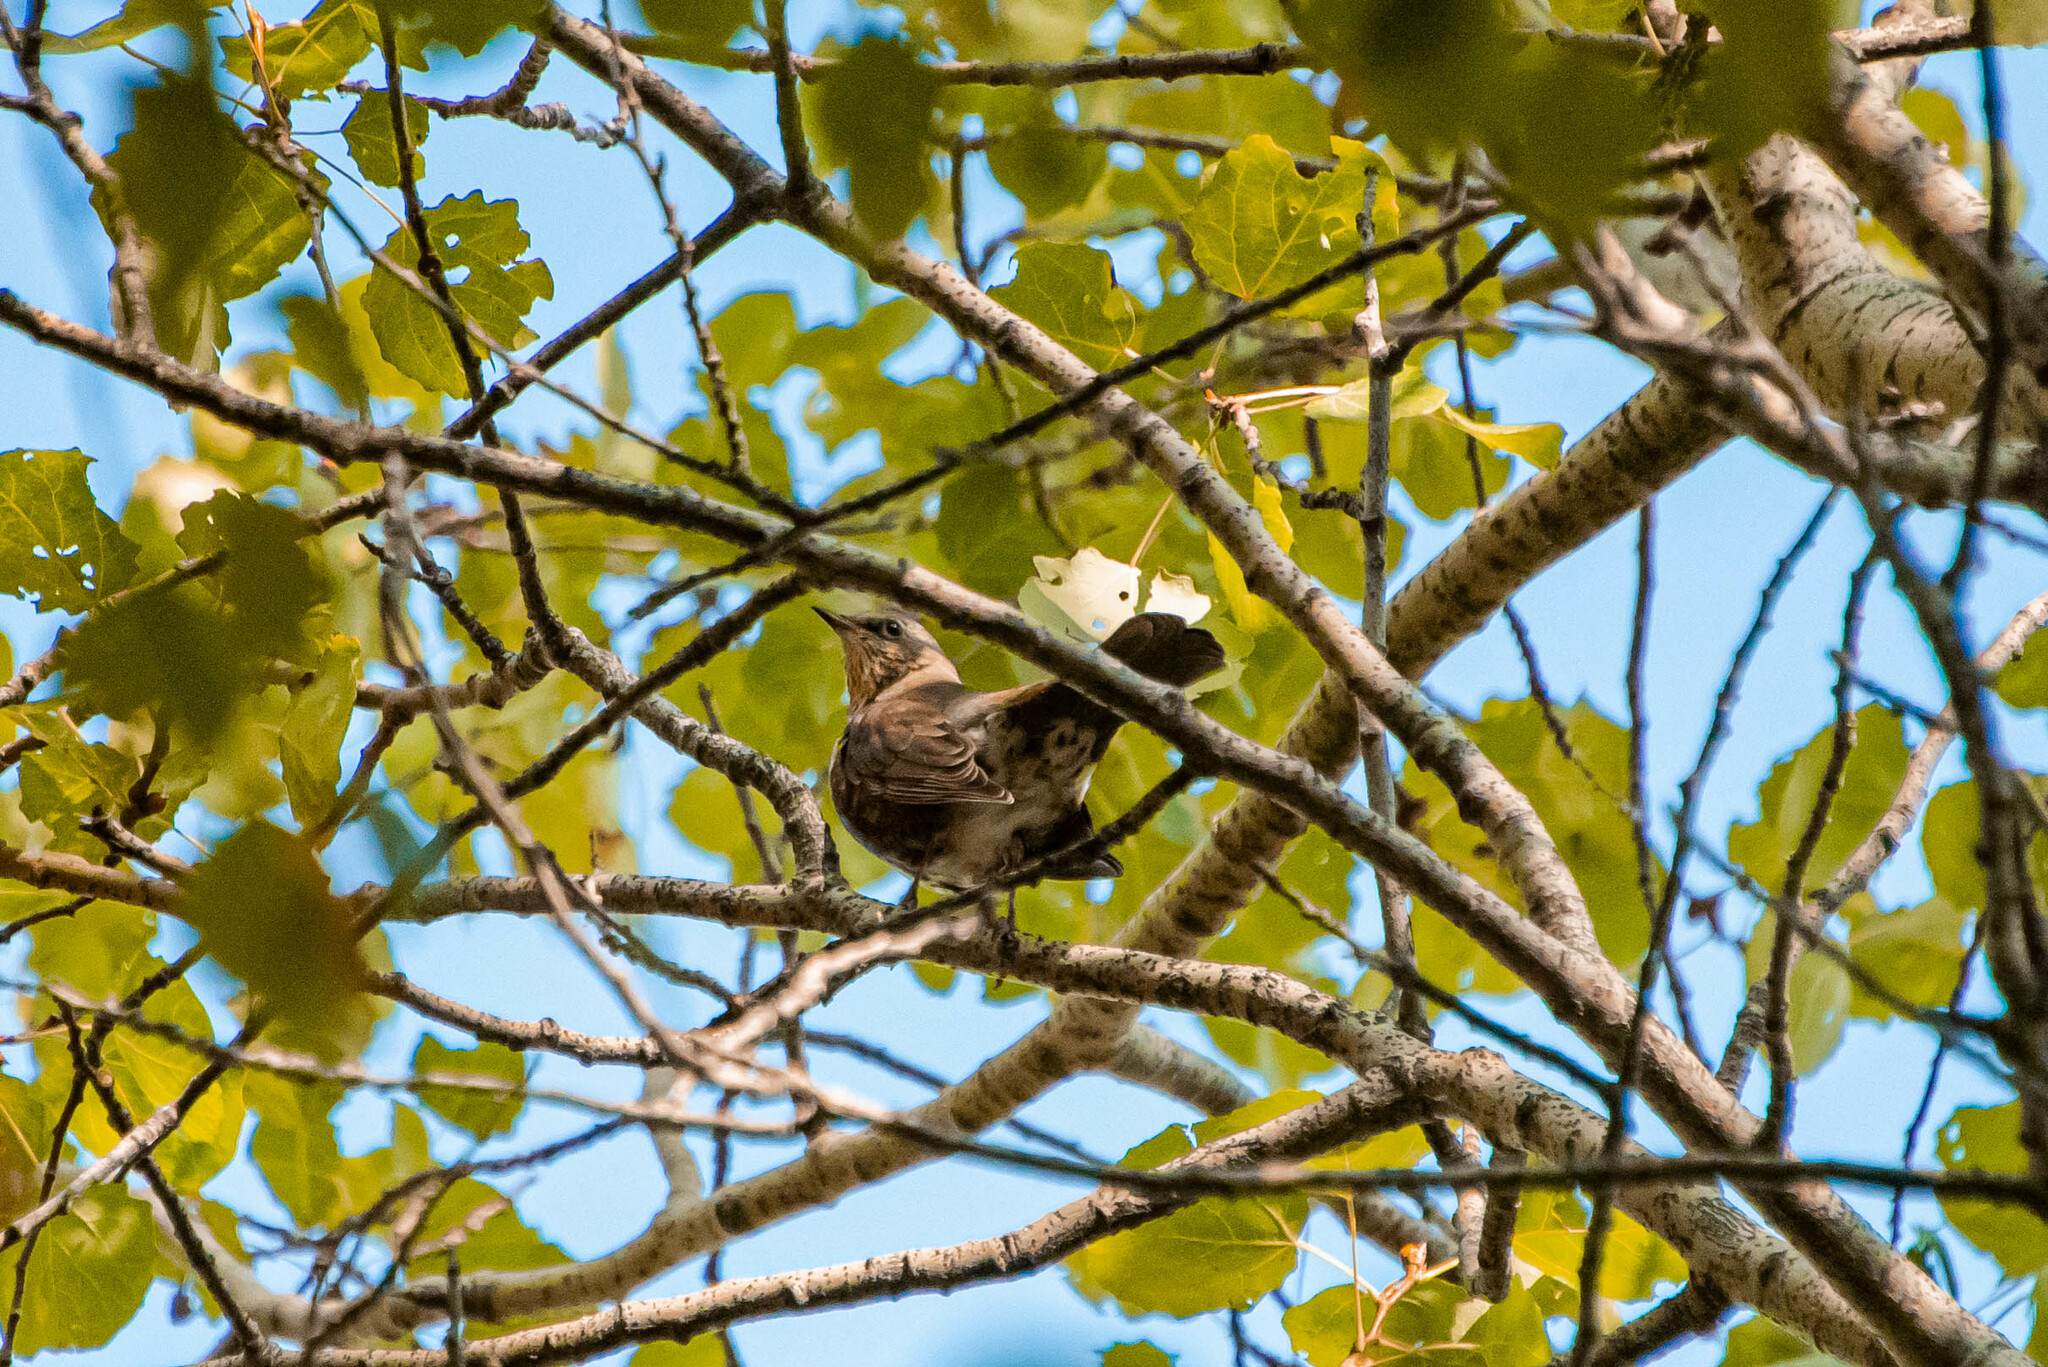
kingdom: Animalia
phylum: Chordata
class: Aves
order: Passeriformes
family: Turdidae
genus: Turdus
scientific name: Turdus pilaris
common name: Fieldfare
